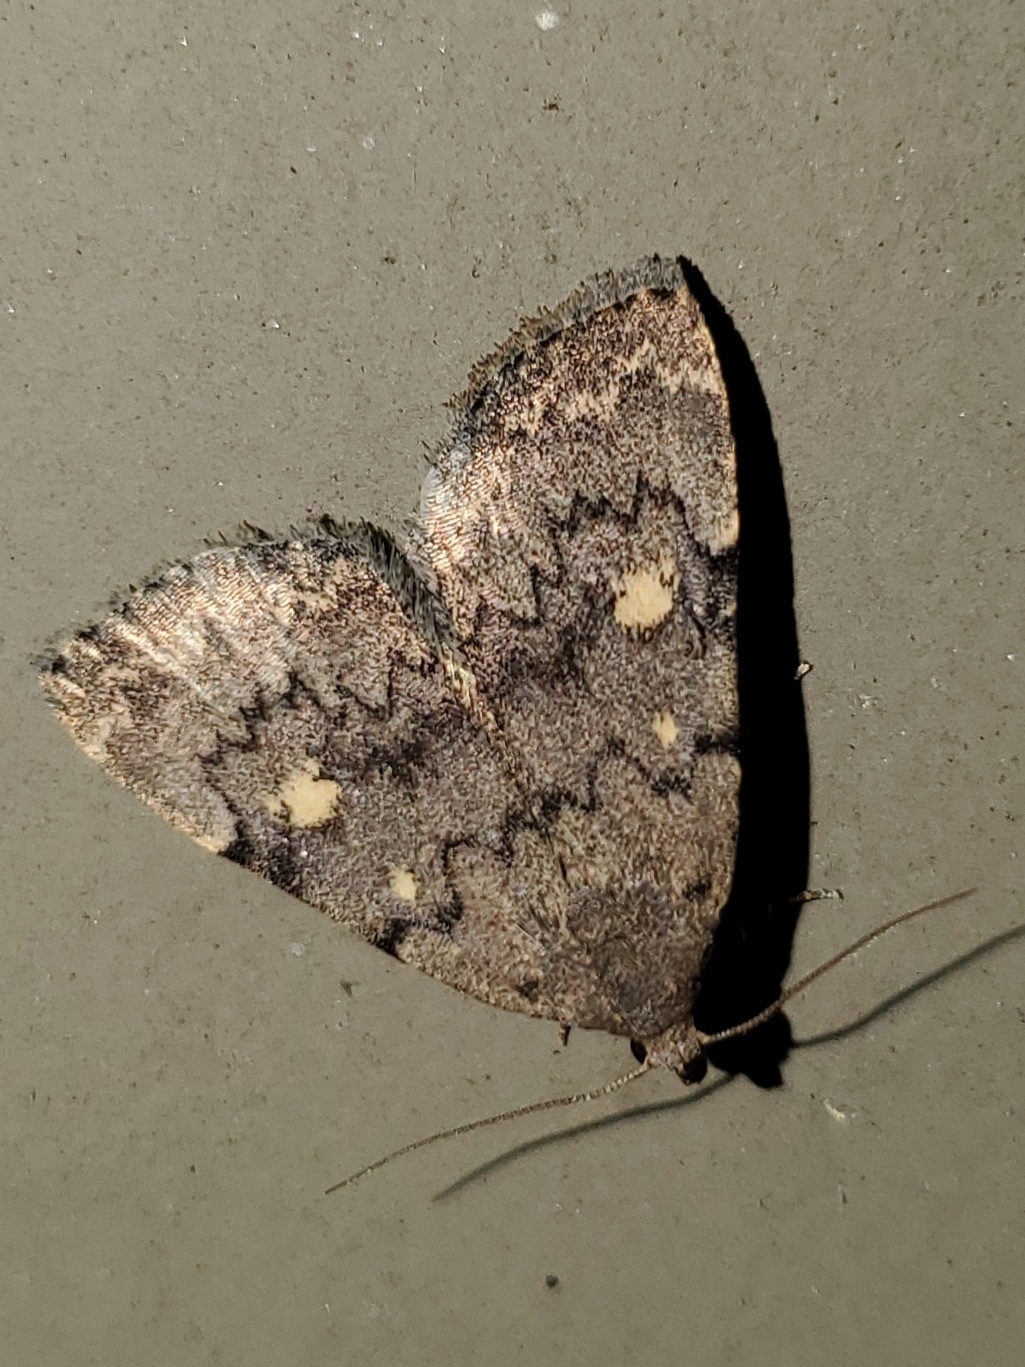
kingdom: Animalia
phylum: Arthropoda
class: Insecta
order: Lepidoptera
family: Erebidae
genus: Idia
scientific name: Idia aemula
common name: Common idia moth
